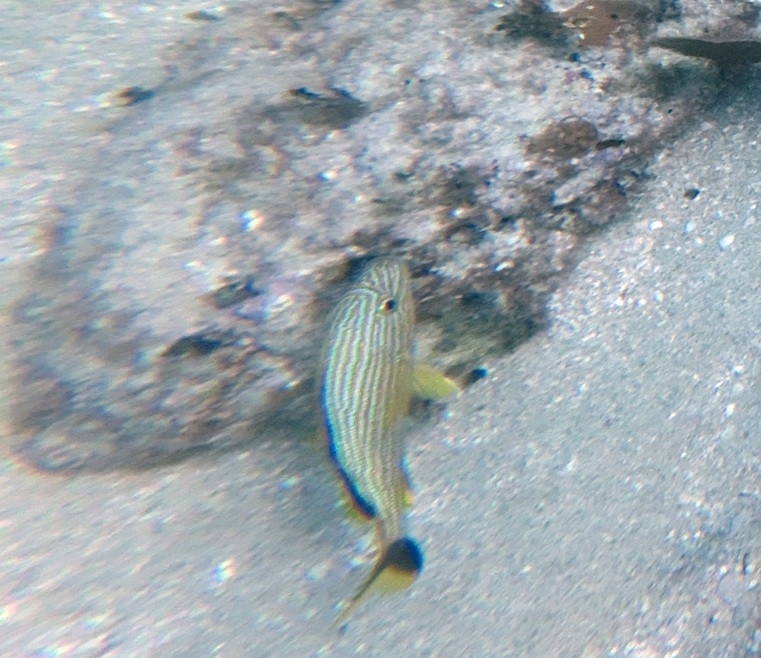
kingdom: Animalia
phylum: Chordata
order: Perciformes
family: Haemulidae
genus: Haemulon
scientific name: Haemulon sciurus
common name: Bluestriped grunt
